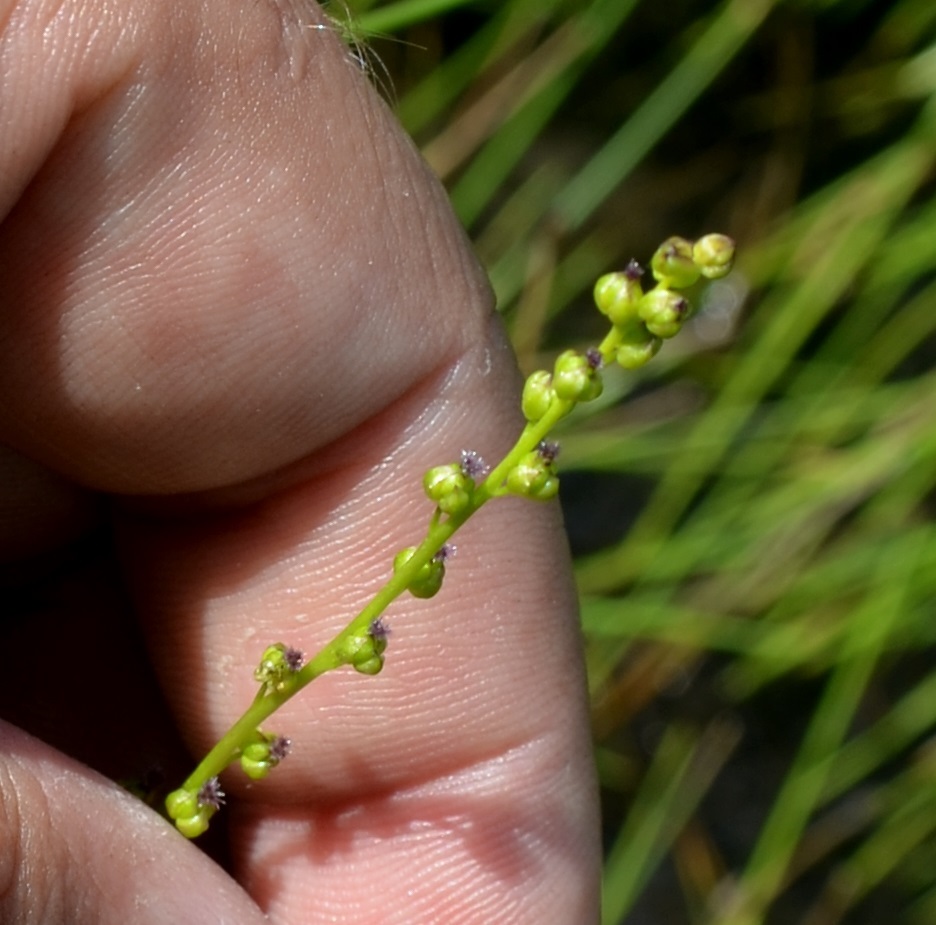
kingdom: Plantae
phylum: Tracheophyta
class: Liliopsida
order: Alismatales
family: Juncaginaceae
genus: Triglochin
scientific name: Triglochin palustris
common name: Marsh arrowgrass
